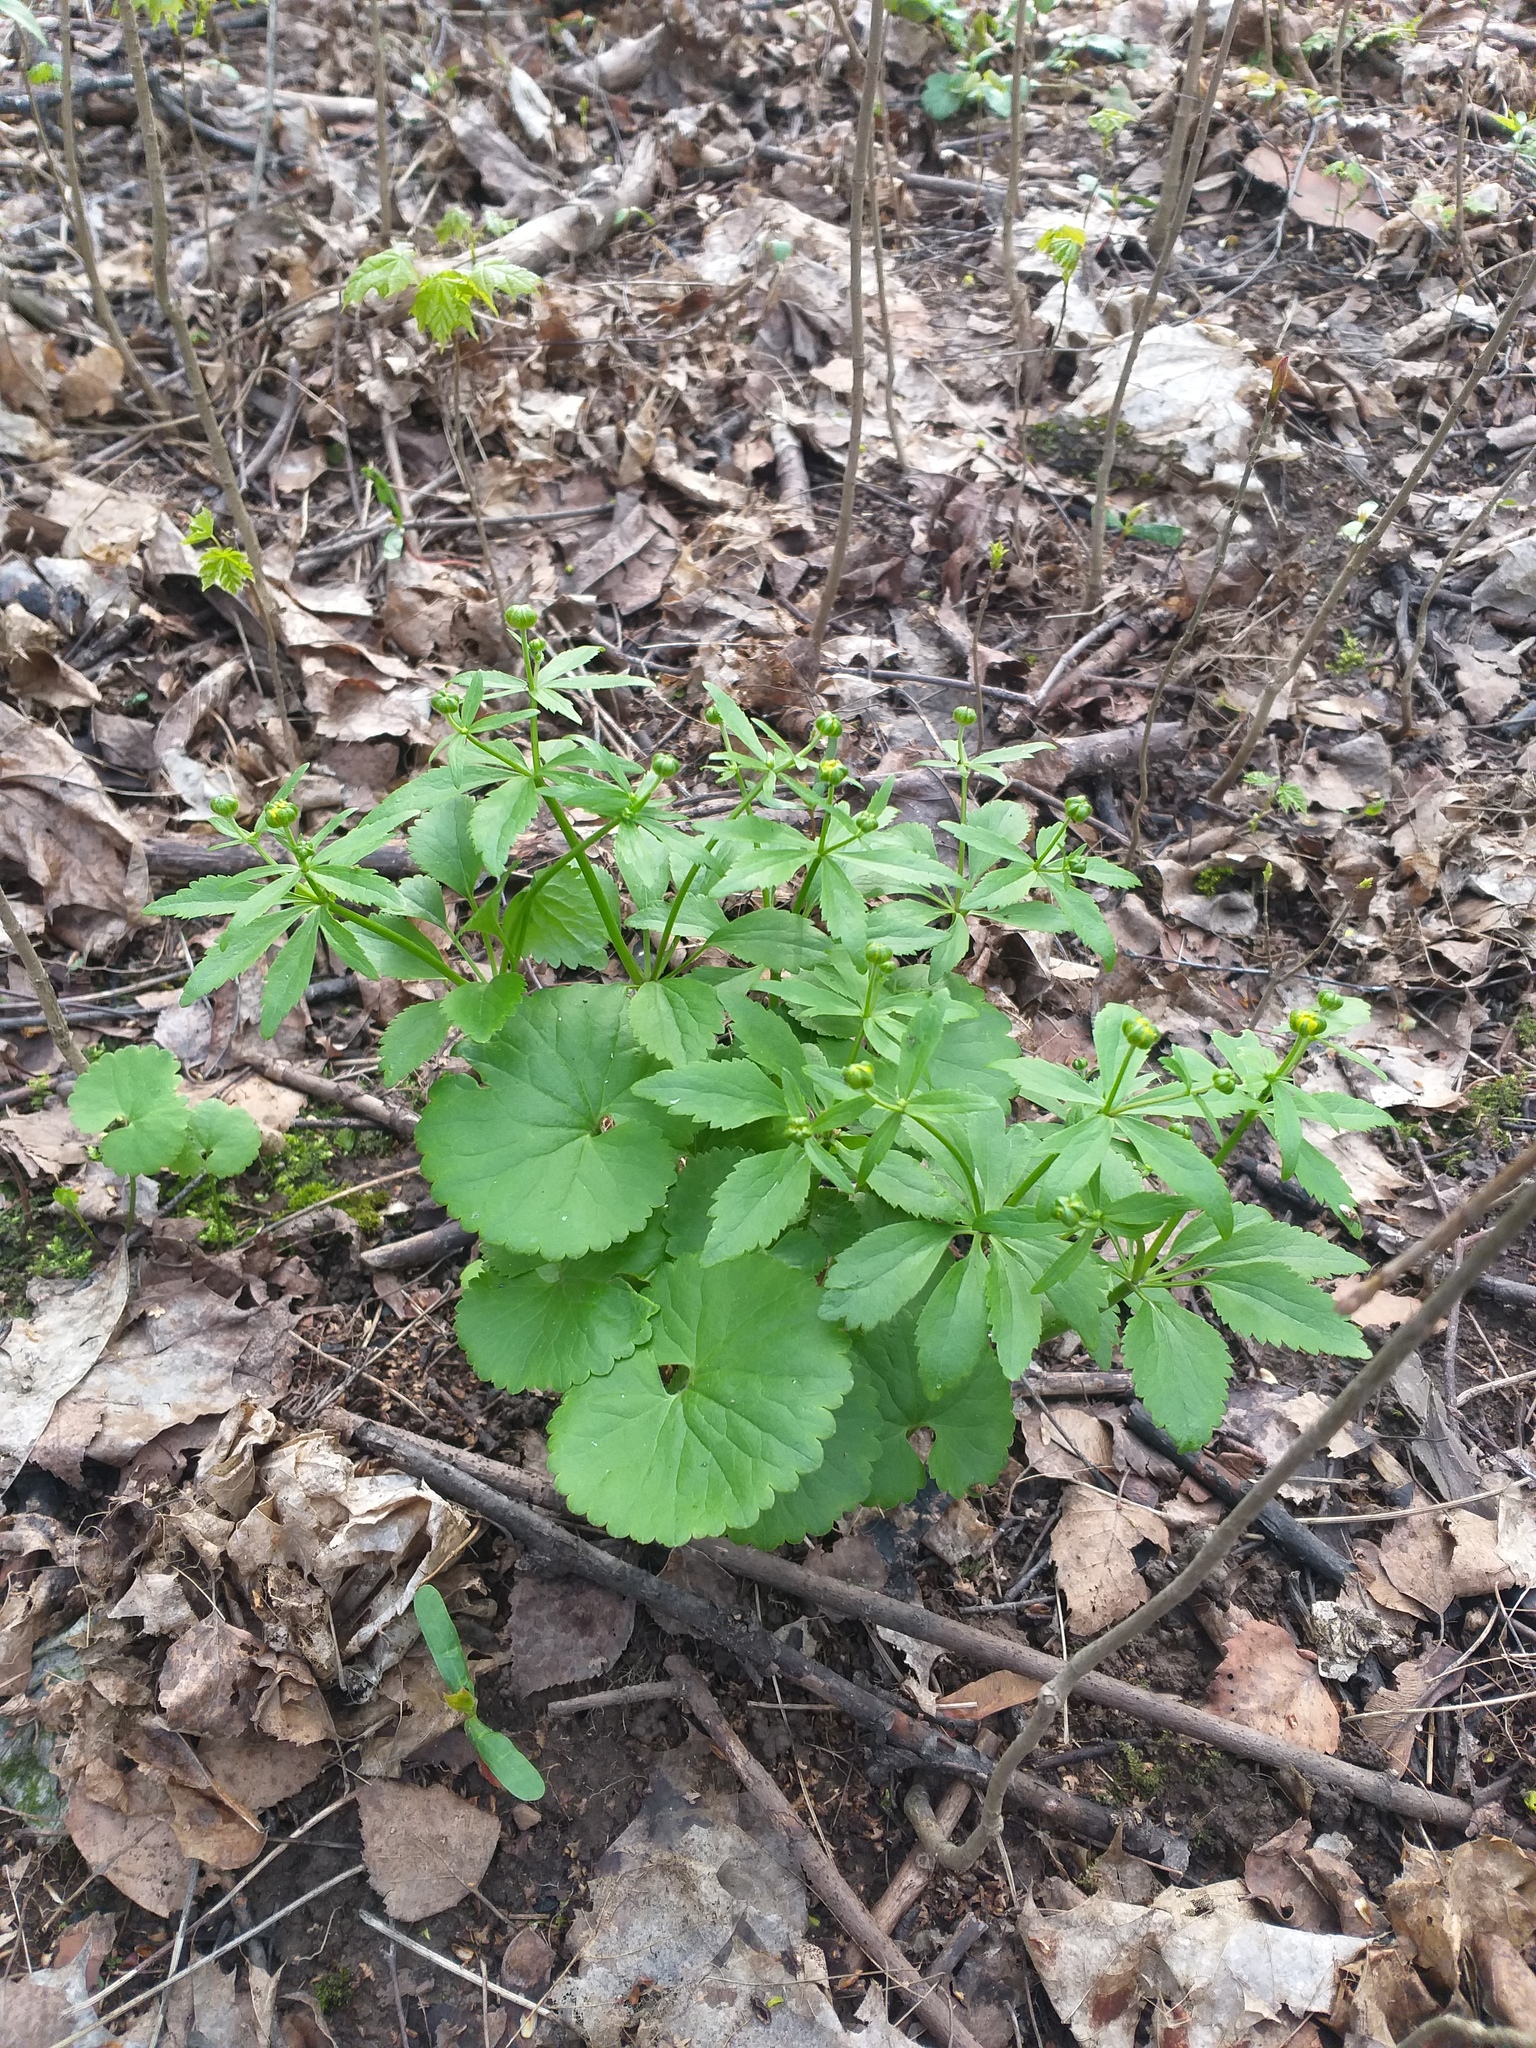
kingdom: Plantae
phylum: Tracheophyta
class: Magnoliopsida
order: Ranunculales
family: Ranunculaceae
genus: Ranunculus
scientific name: Ranunculus cassubicus
